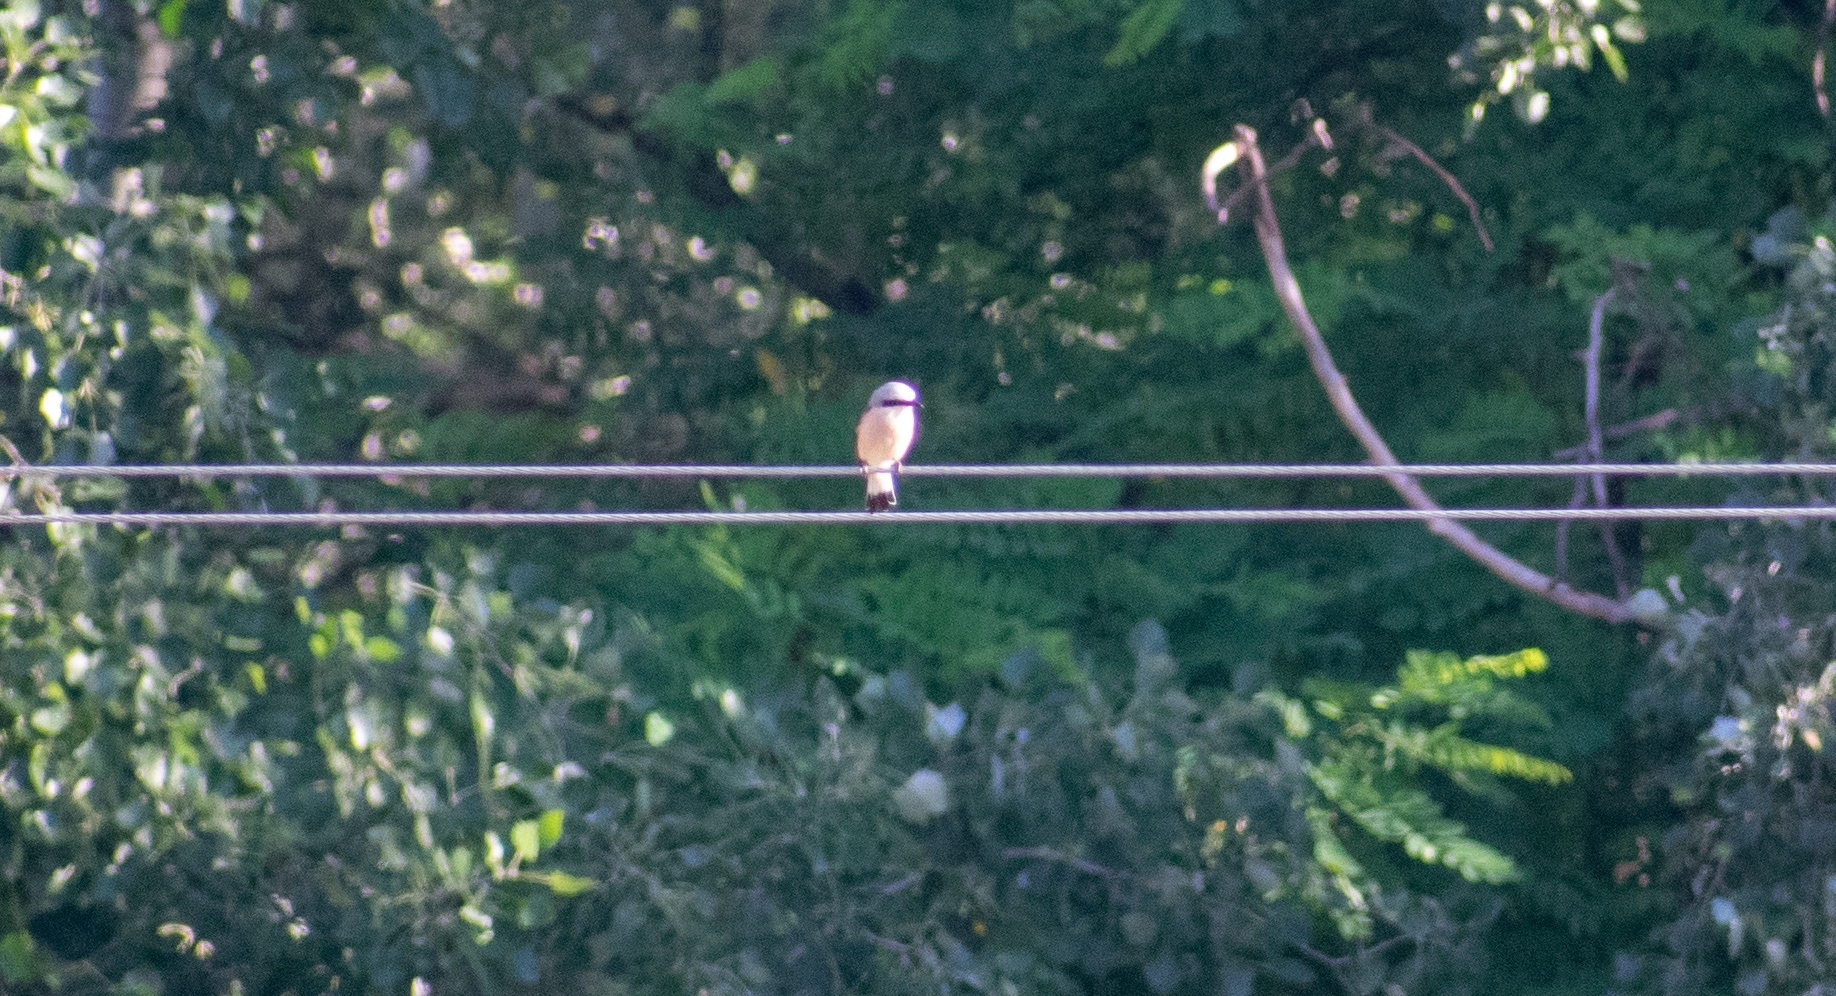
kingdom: Animalia
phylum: Chordata
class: Aves
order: Passeriformes
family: Laniidae
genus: Lanius
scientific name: Lanius collurio
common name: Red-backed shrike
